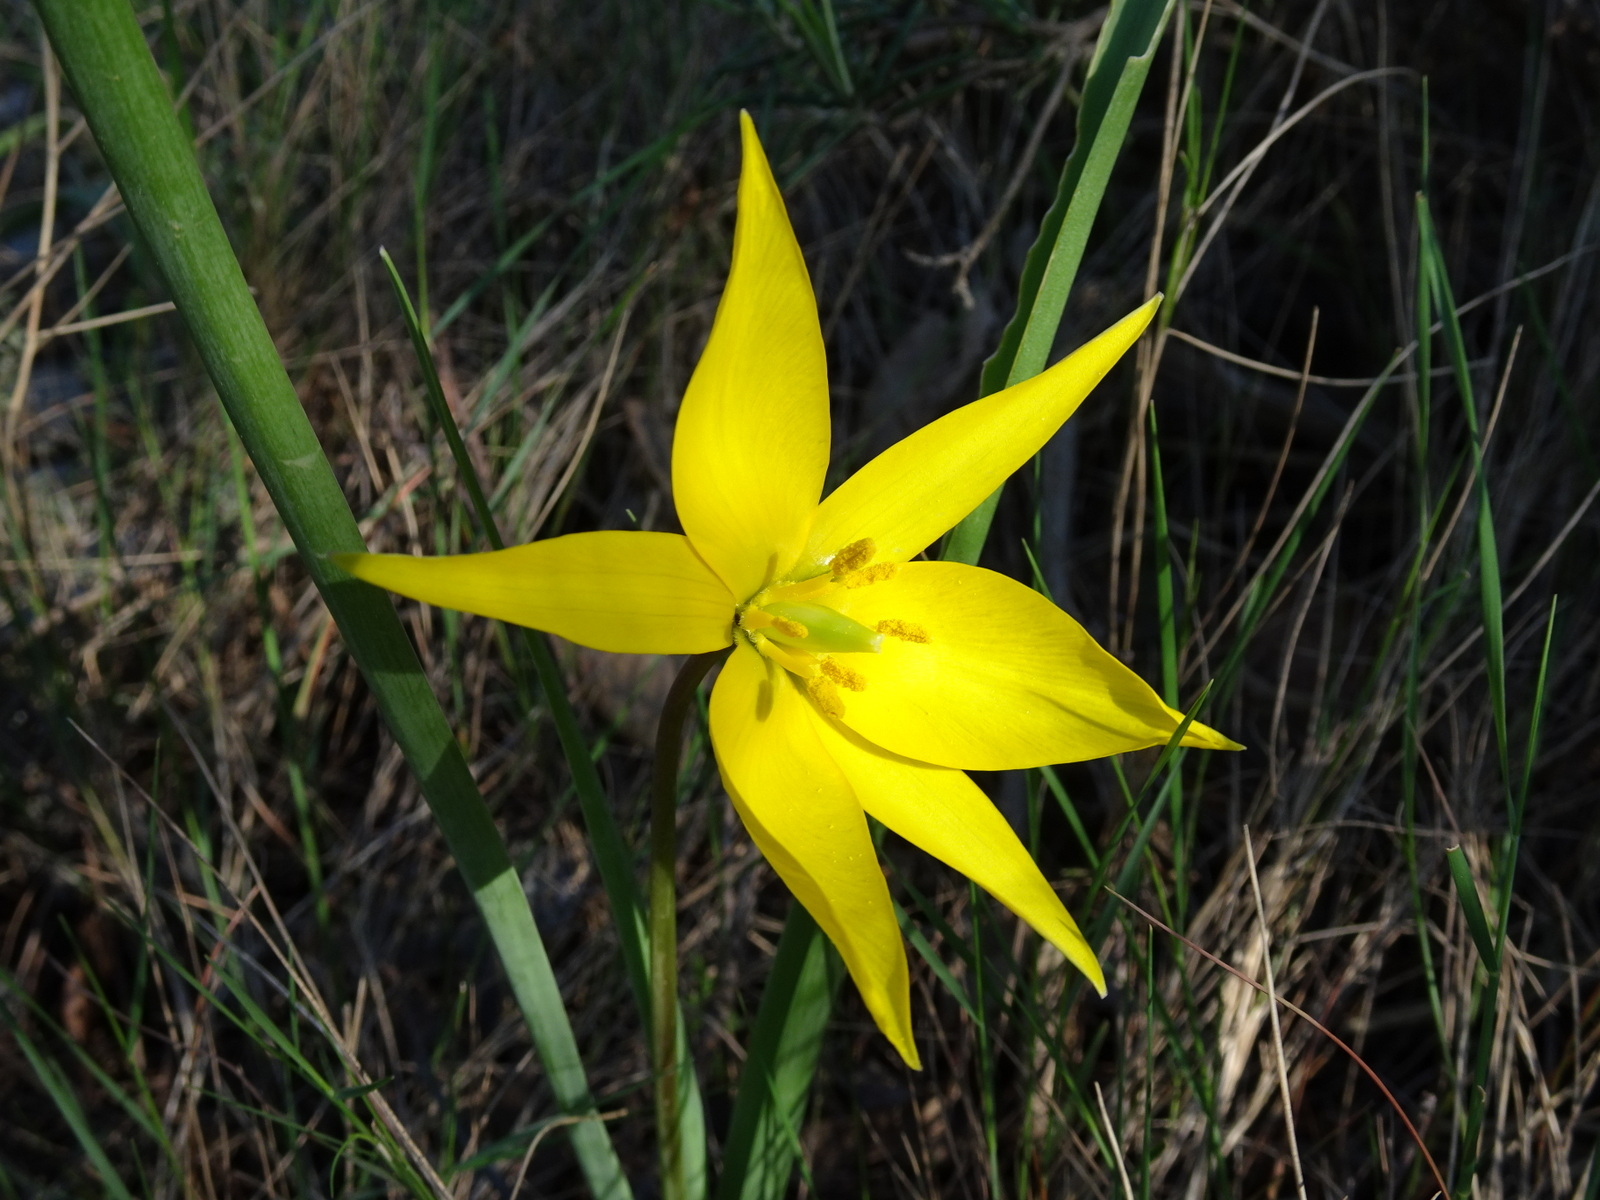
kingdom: Plantae
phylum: Tracheophyta
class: Liliopsida
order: Liliales
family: Liliaceae
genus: Tulipa
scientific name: Tulipa sylvestris
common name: Wild tulip
